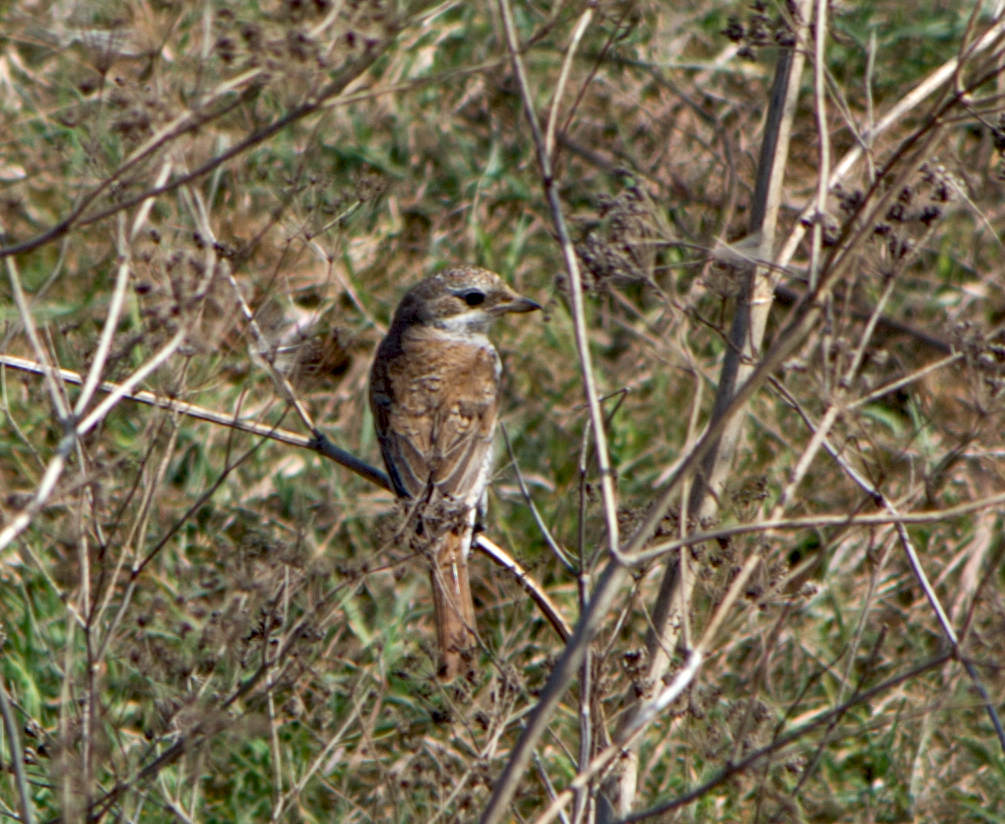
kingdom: Animalia
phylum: Chordata
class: Aves
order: Passeriformes
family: Laniidae
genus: Lanius
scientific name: Lanius collurio
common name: Red-backed shrike
